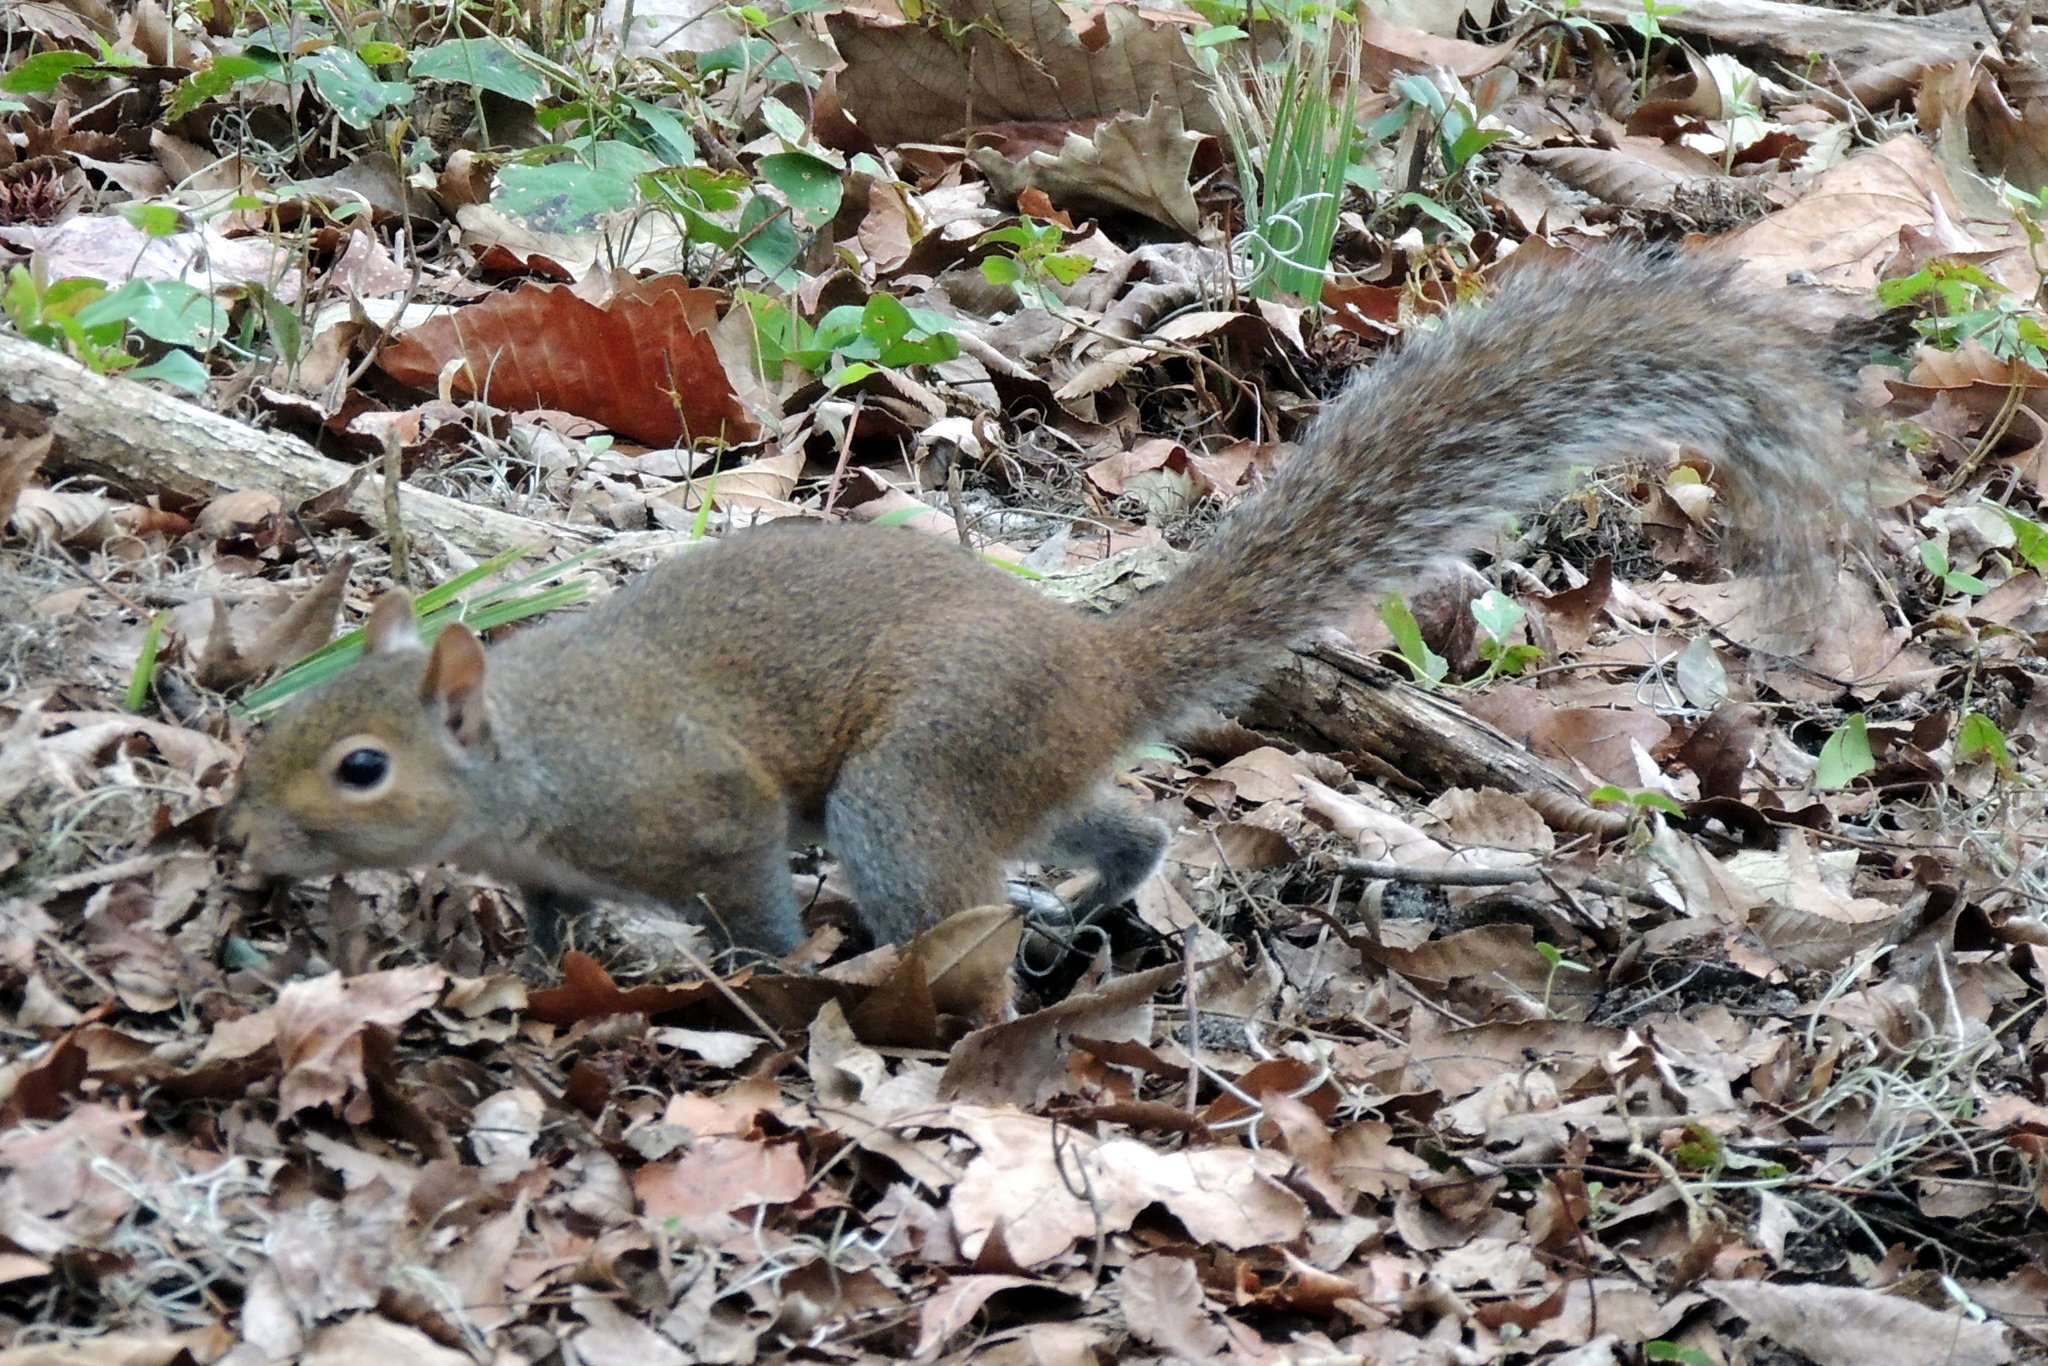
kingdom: Animalia
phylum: Chordata
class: Mammalia
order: Rodentia
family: Sciuridae
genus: Sciurus
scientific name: Sciurus carolinensis
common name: Eastern gray squirrel
